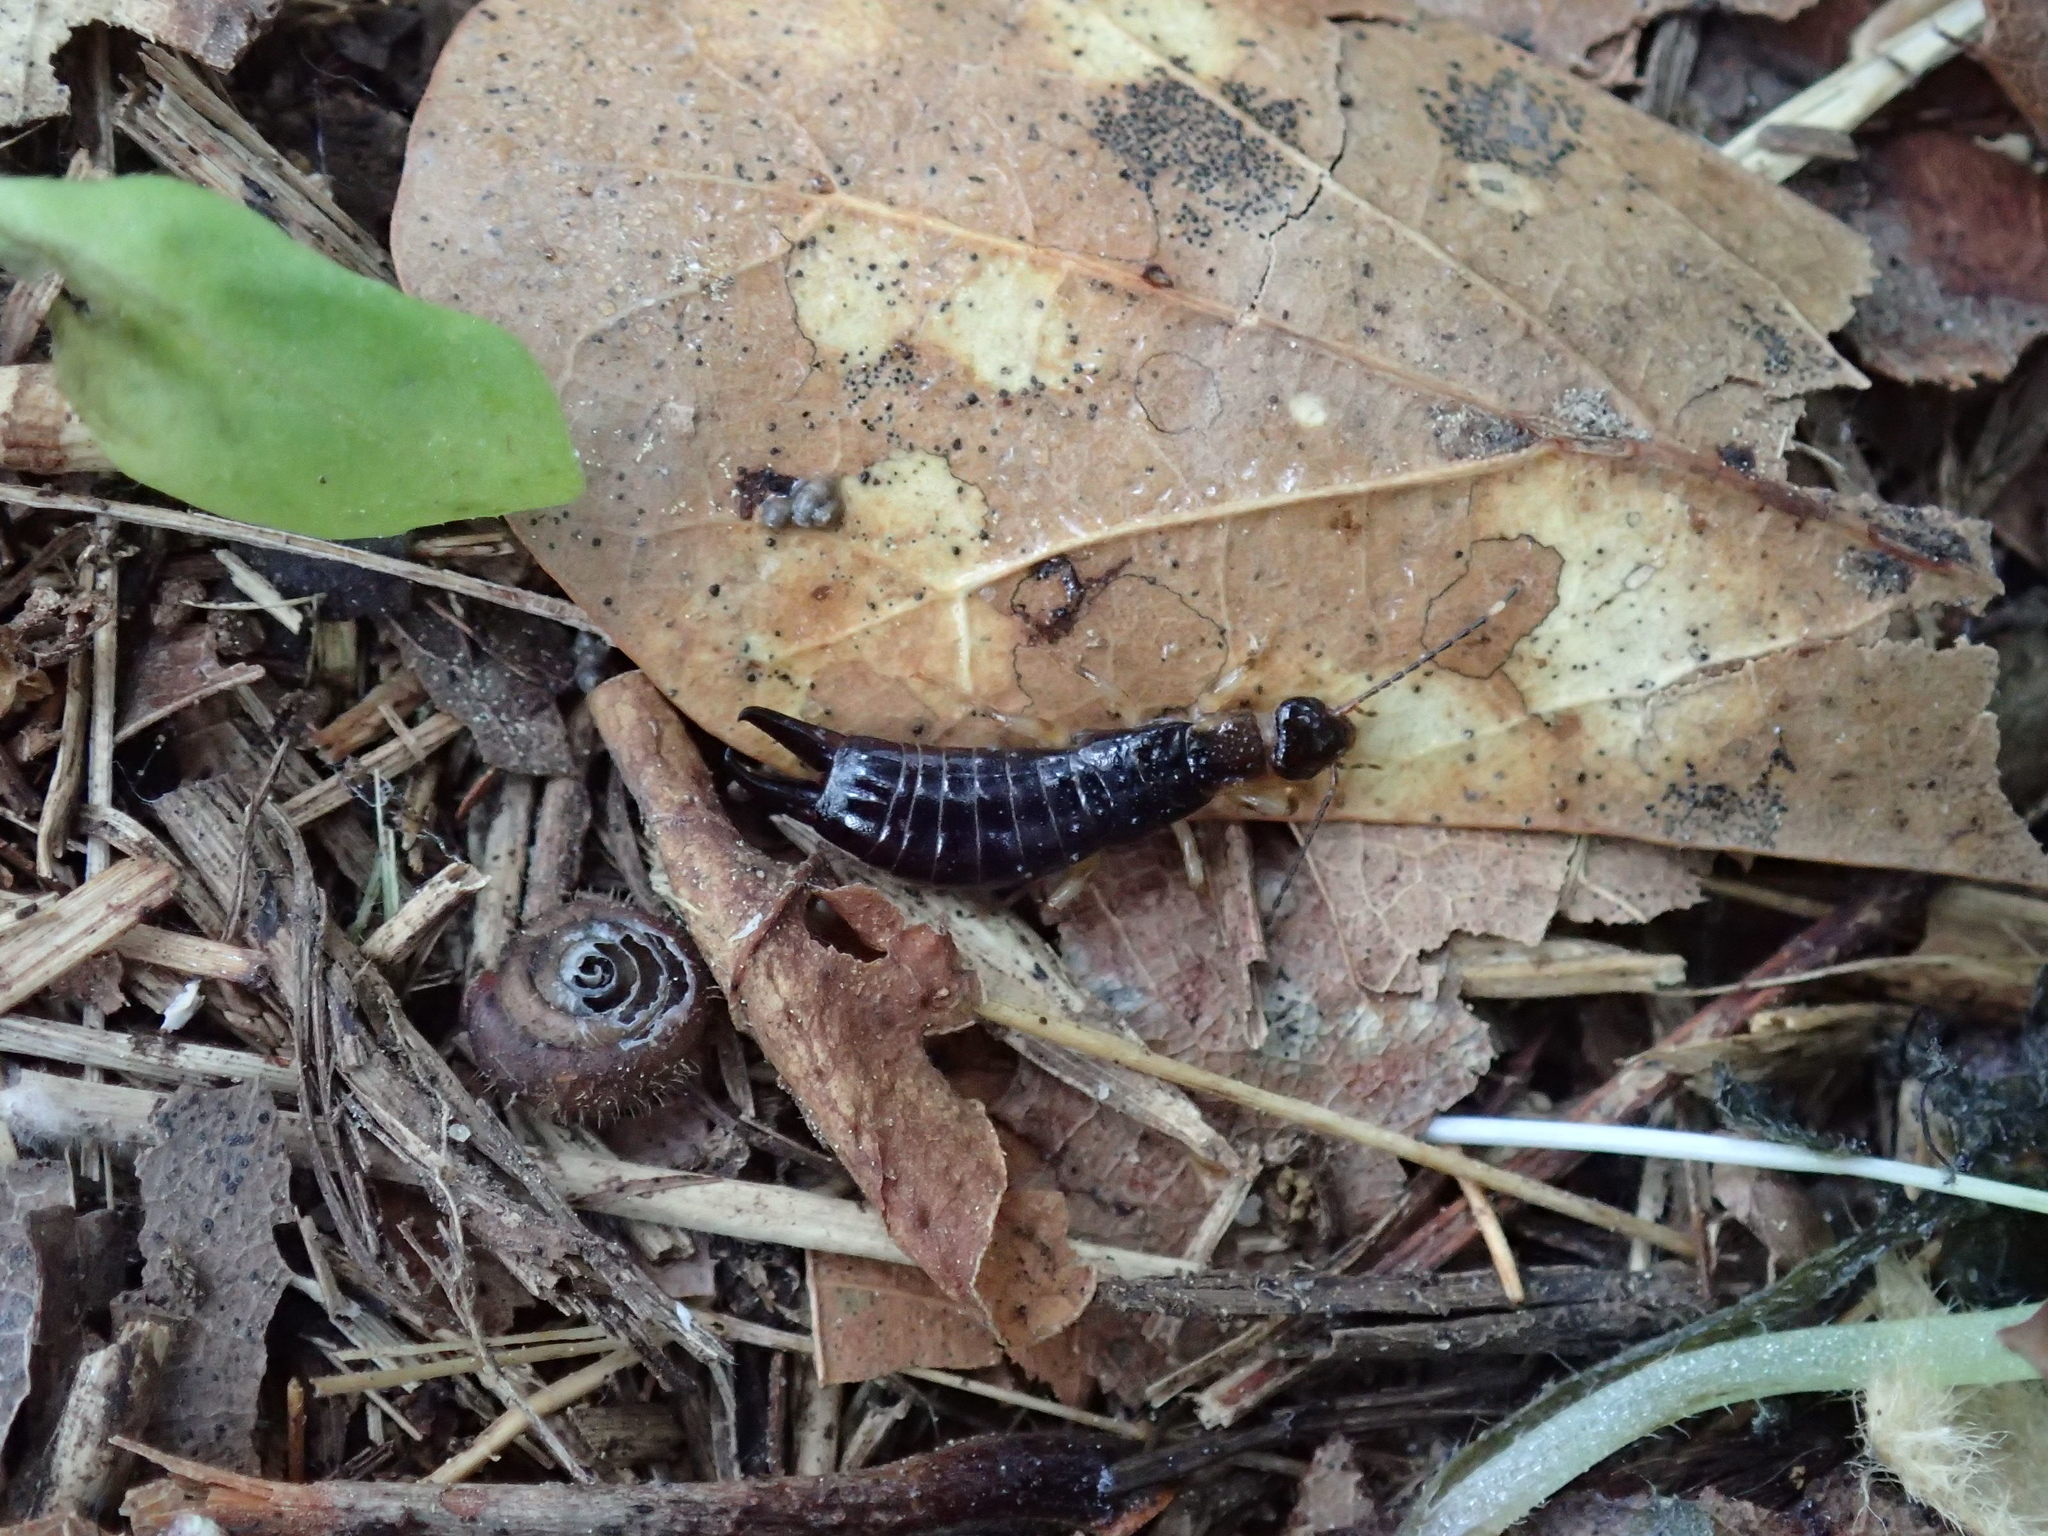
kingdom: Animalia
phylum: Arthropoda
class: Insecta
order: Dermaptera
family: Anisolabididae
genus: Euborellia
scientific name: Euborellia annulipes
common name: Ringlegged earwig
